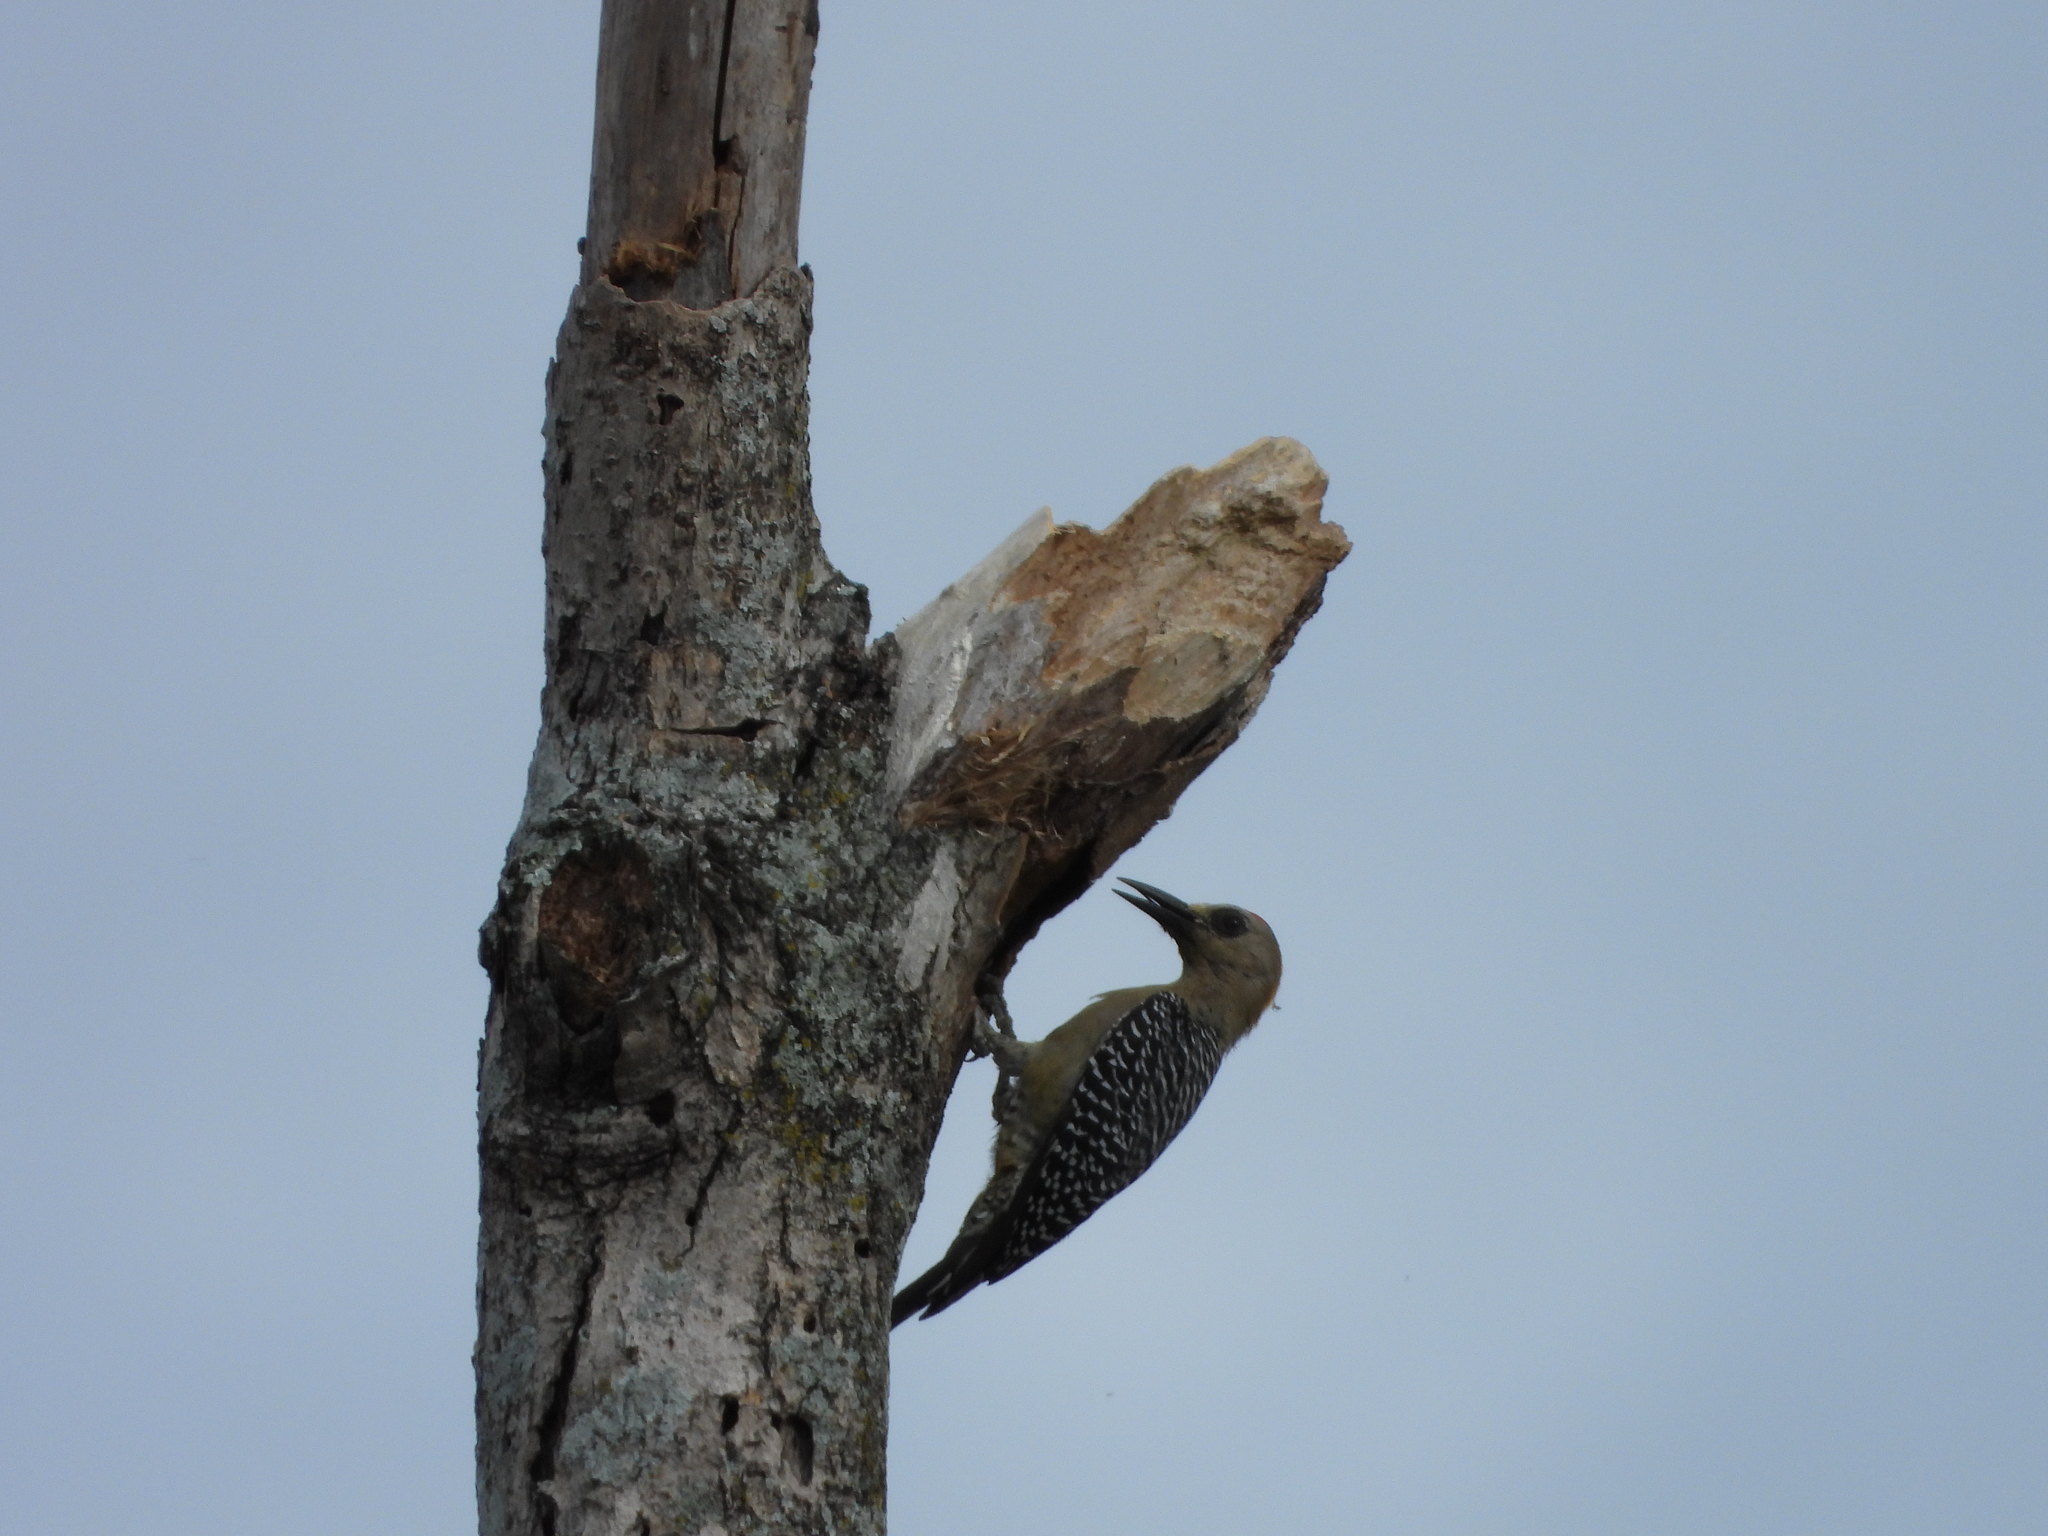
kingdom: Animalia
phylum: Chordata
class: Aves
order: Piciformes
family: Picidae
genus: Melanerpes
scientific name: Melanerpes hoffmannii
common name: Hoffmann's woodpecker
